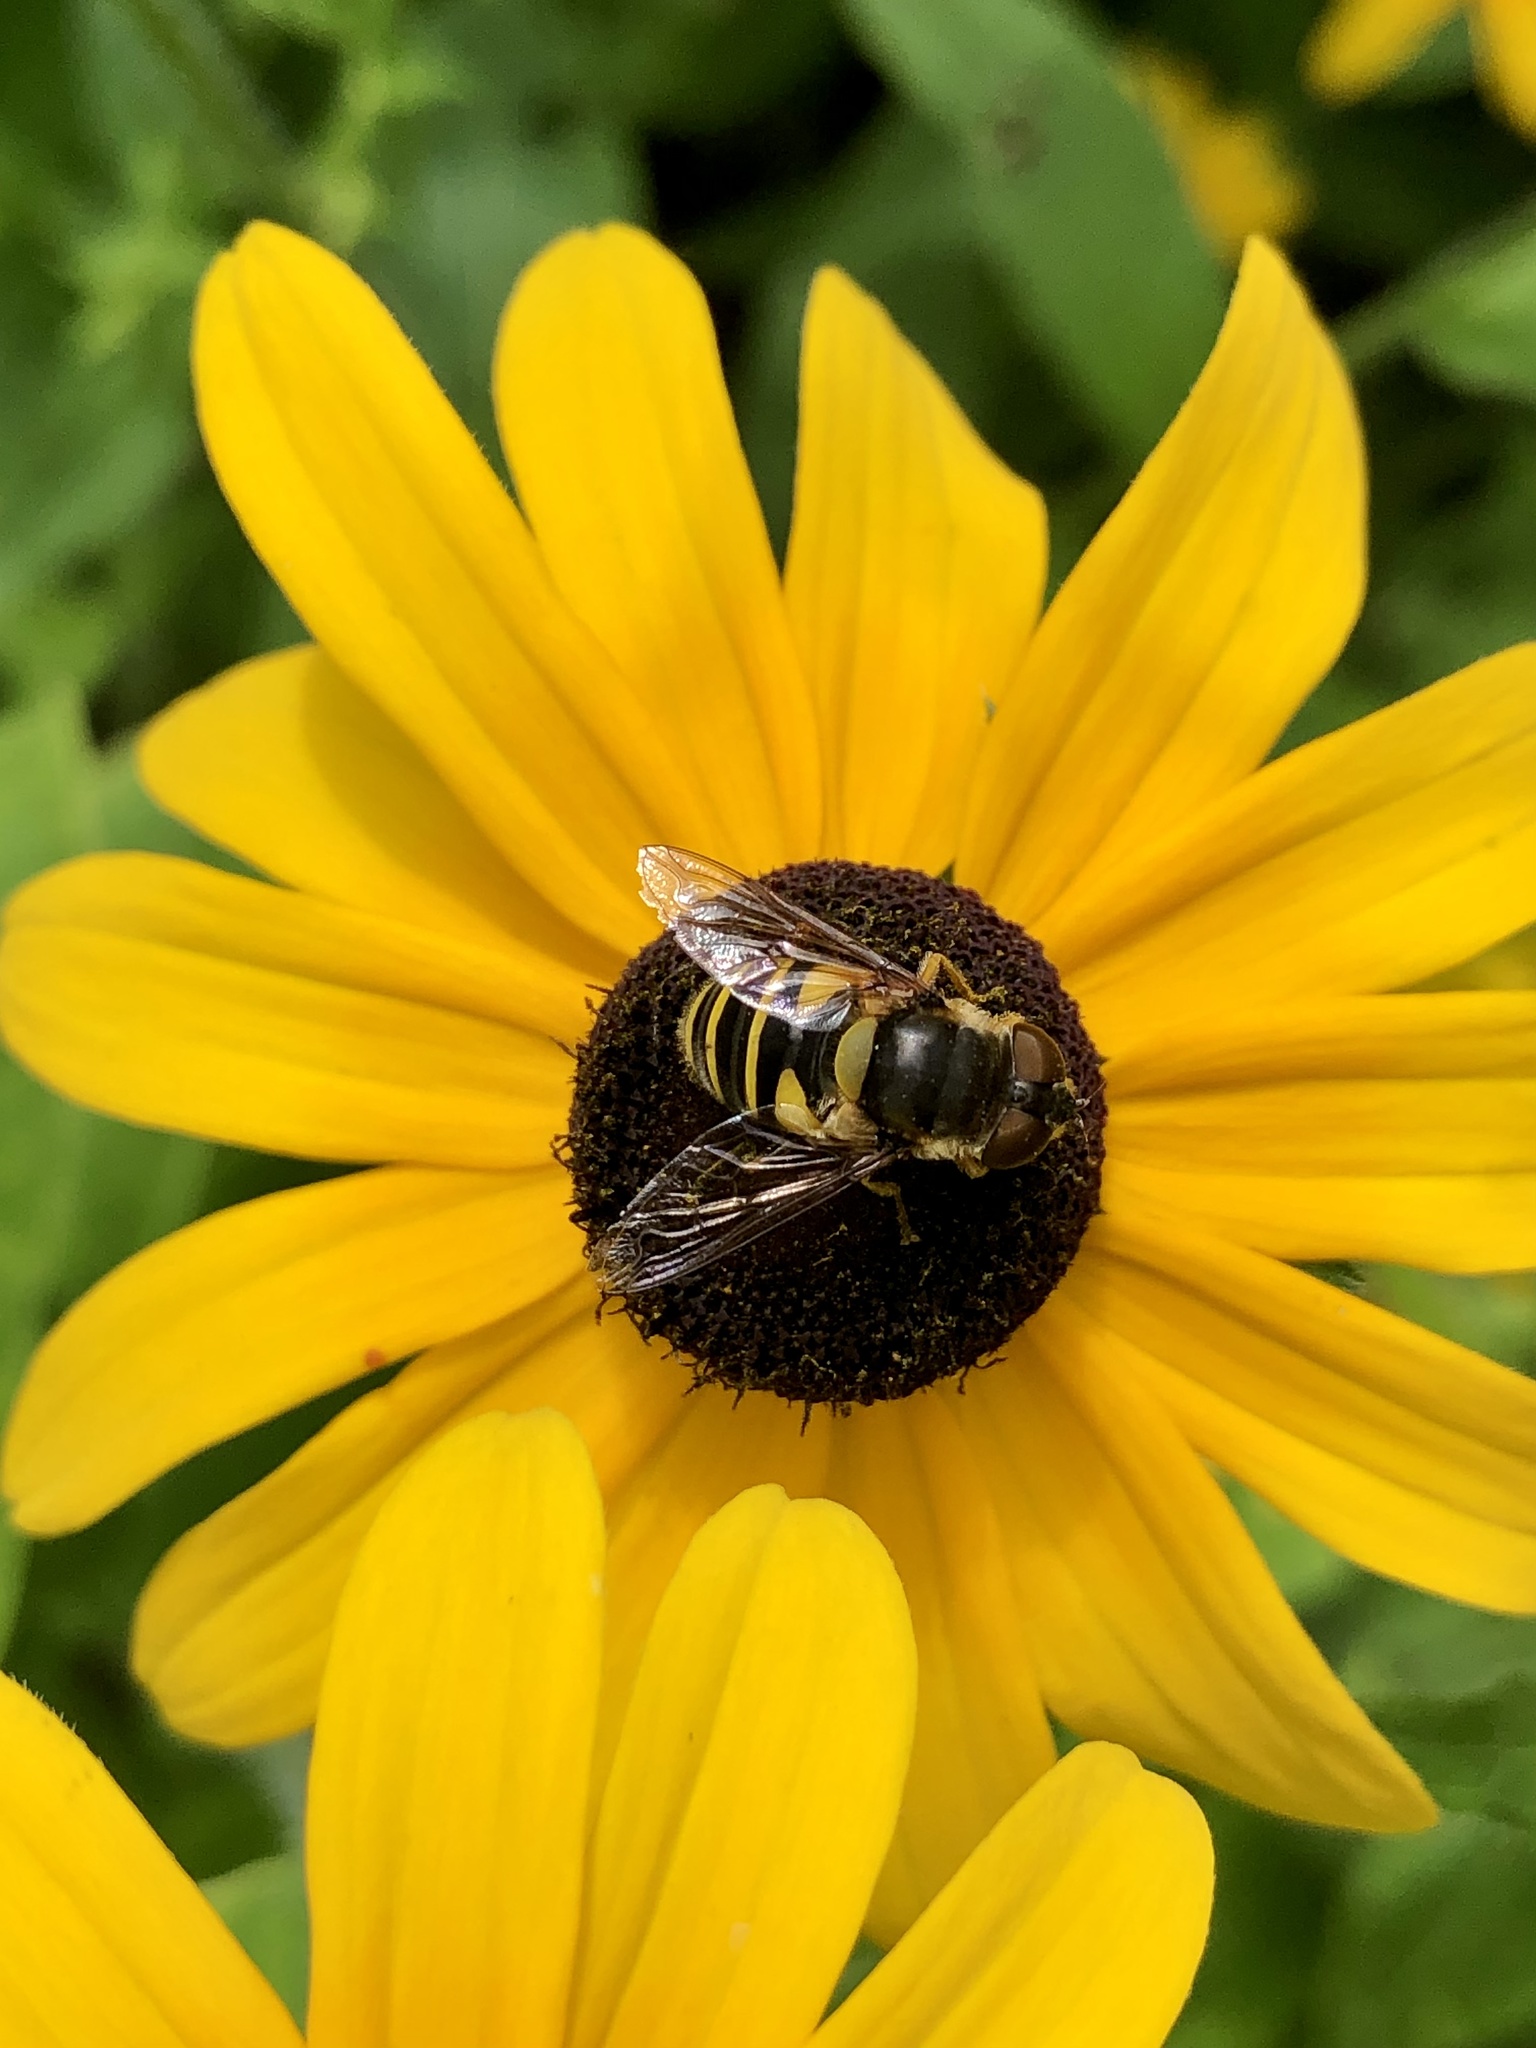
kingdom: Animalia
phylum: Arthropoda
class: Insecta
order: Diptera
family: Syrphidae
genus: Eristalis
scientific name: Eristalis transversa
